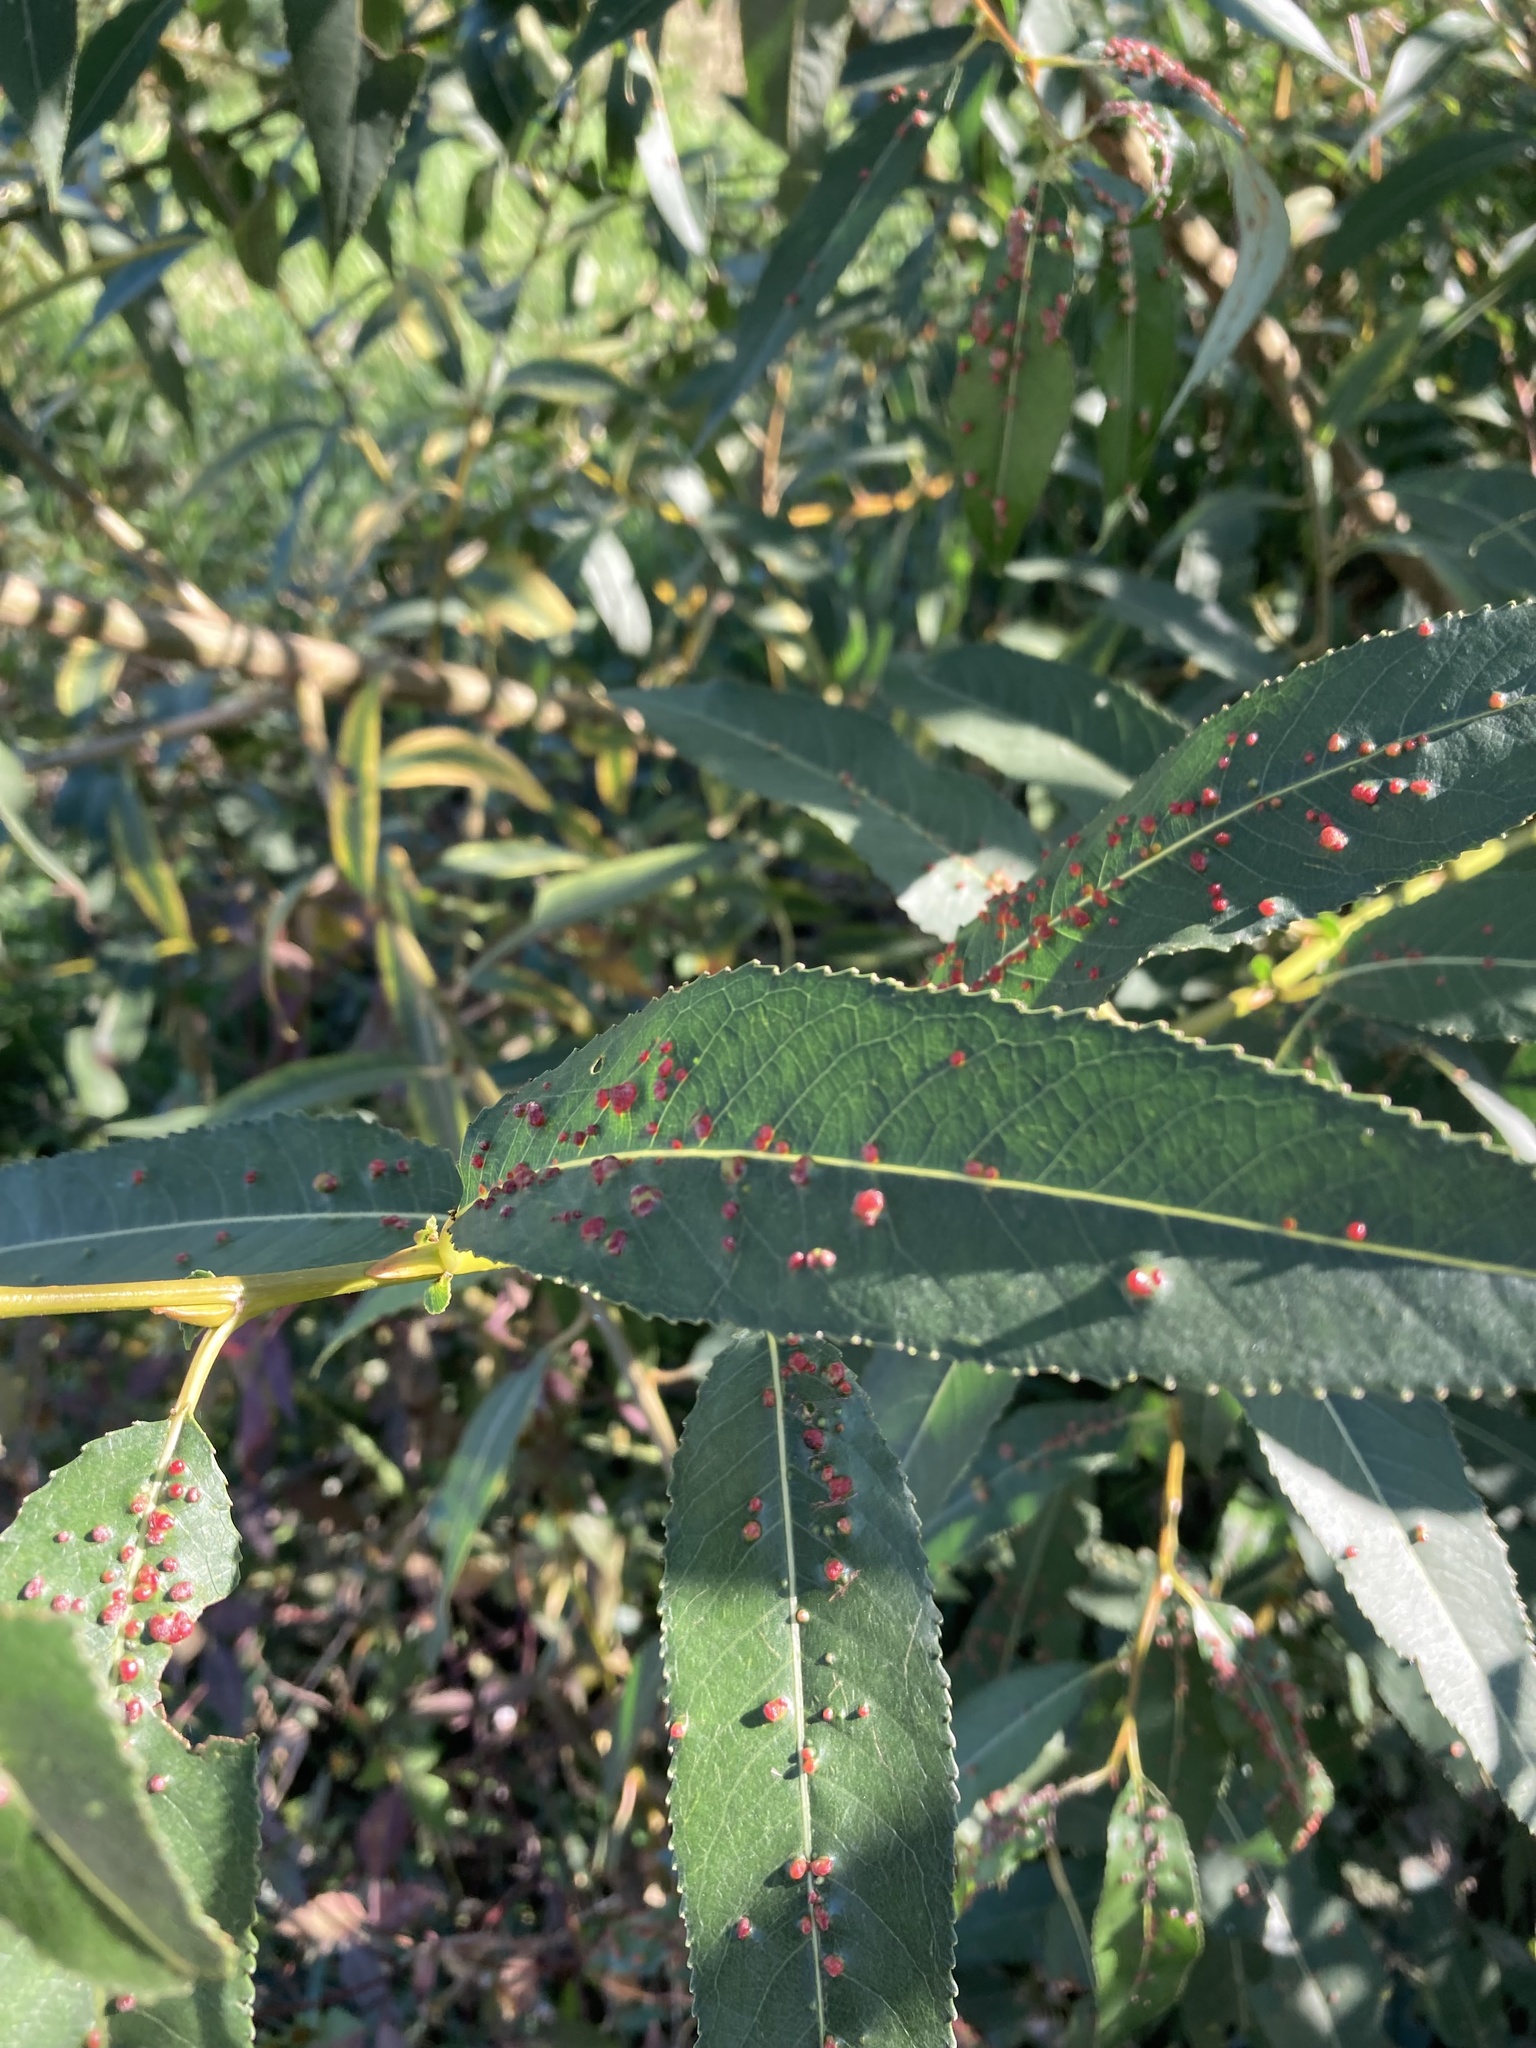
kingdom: Animalia
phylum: Arthropoda
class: Arachnida
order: Trombidiformes
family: Eriophyidae
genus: Aculus
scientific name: Aculus tetanothrix
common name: Willow bead gall mite
